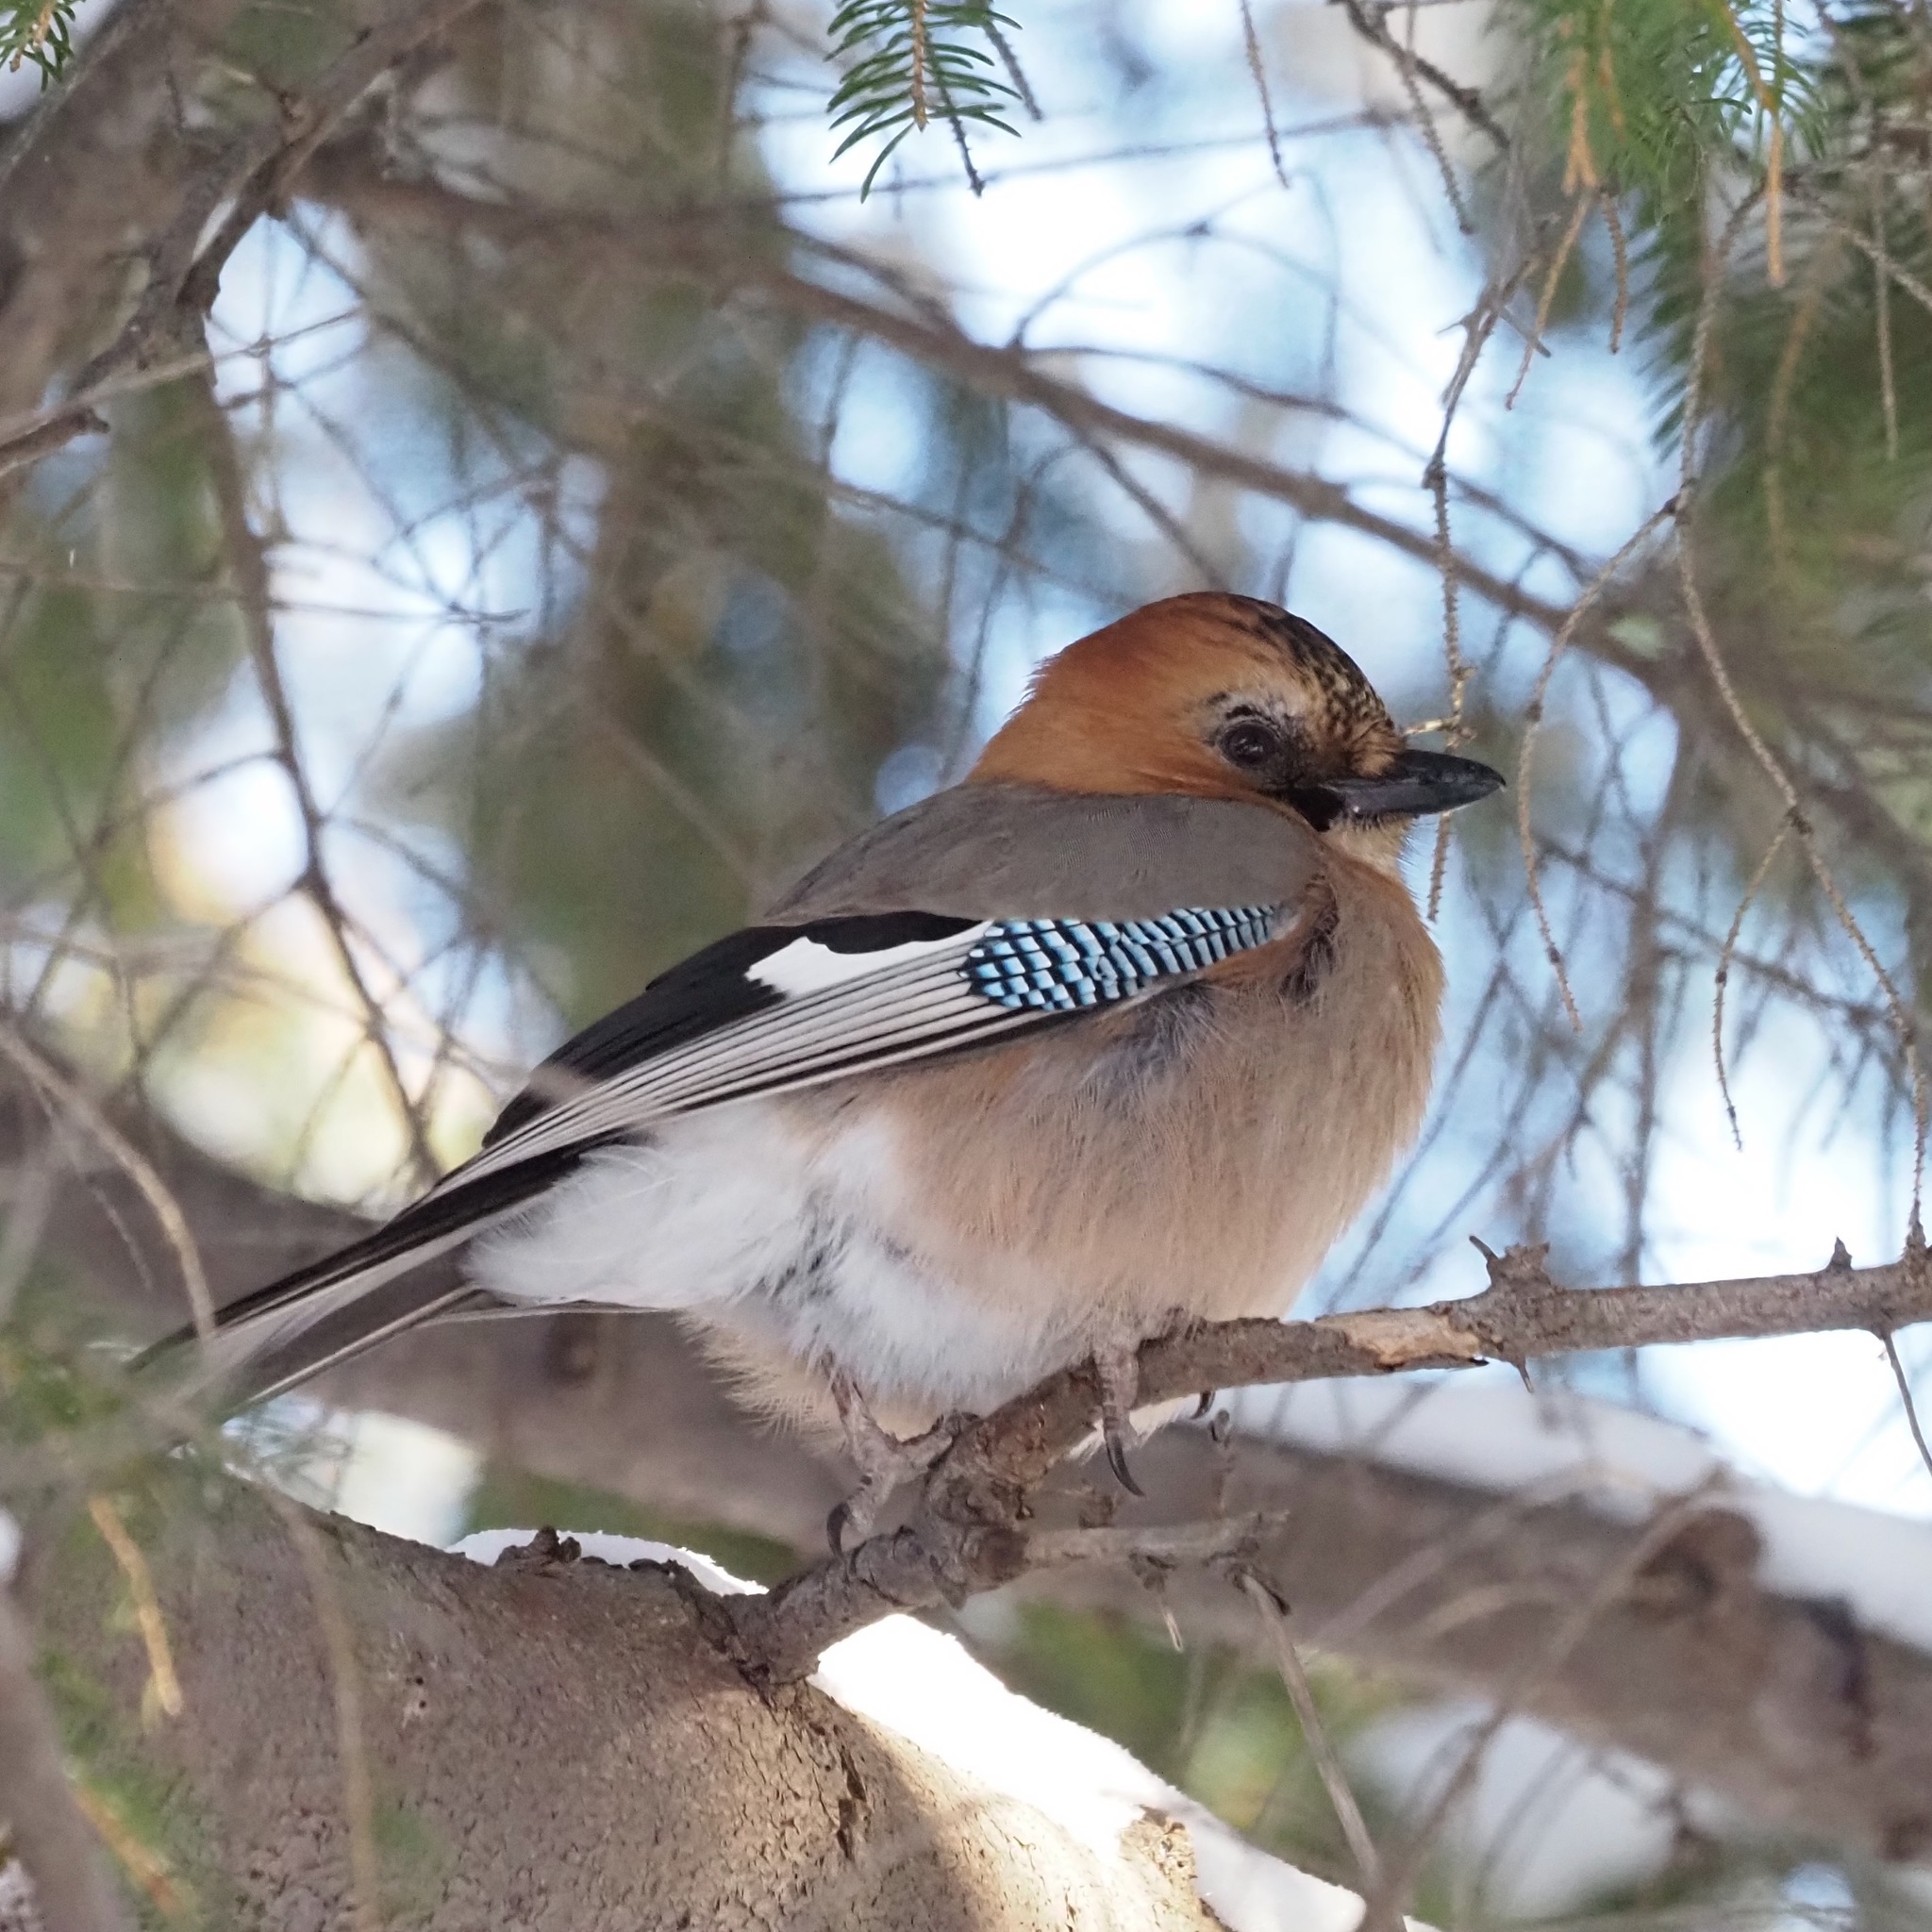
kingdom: Animalia
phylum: Chordata
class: Aves
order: Passeriformes
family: Corvidae
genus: Garrulus
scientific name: Garrulus glandarius
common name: Eurasian jay
